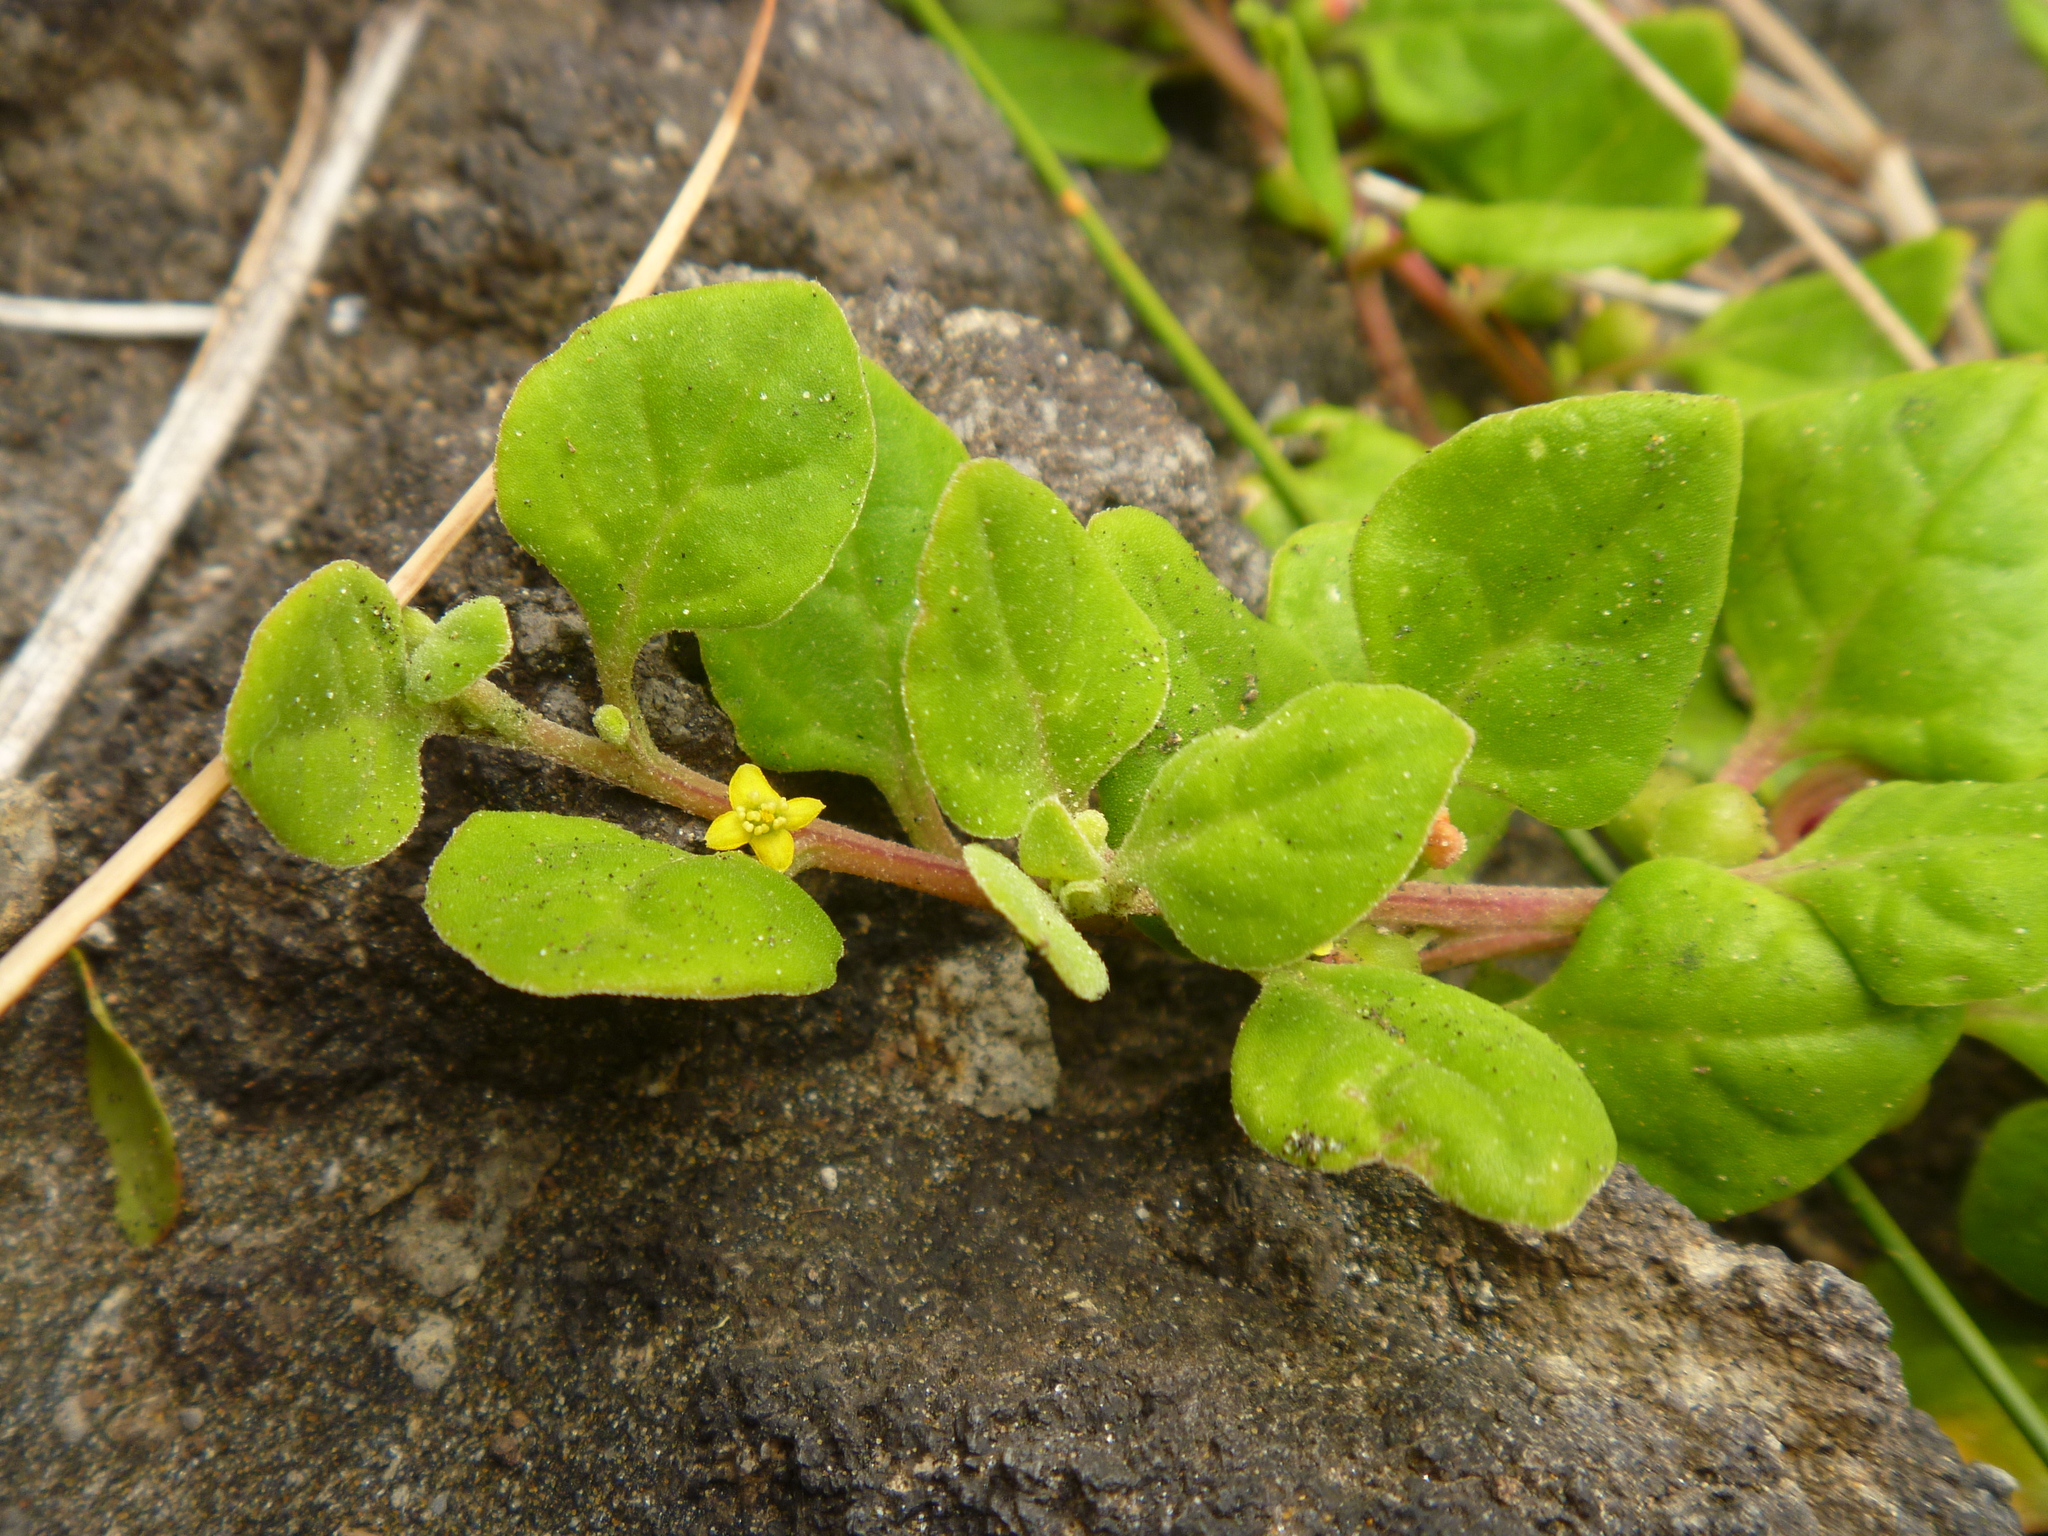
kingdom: Plantae
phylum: Tracheophyta
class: Magnoliopsida
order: Caryophyllales
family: Aizoaceae
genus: Tetragonia
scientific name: Tetragonia implexicoma
